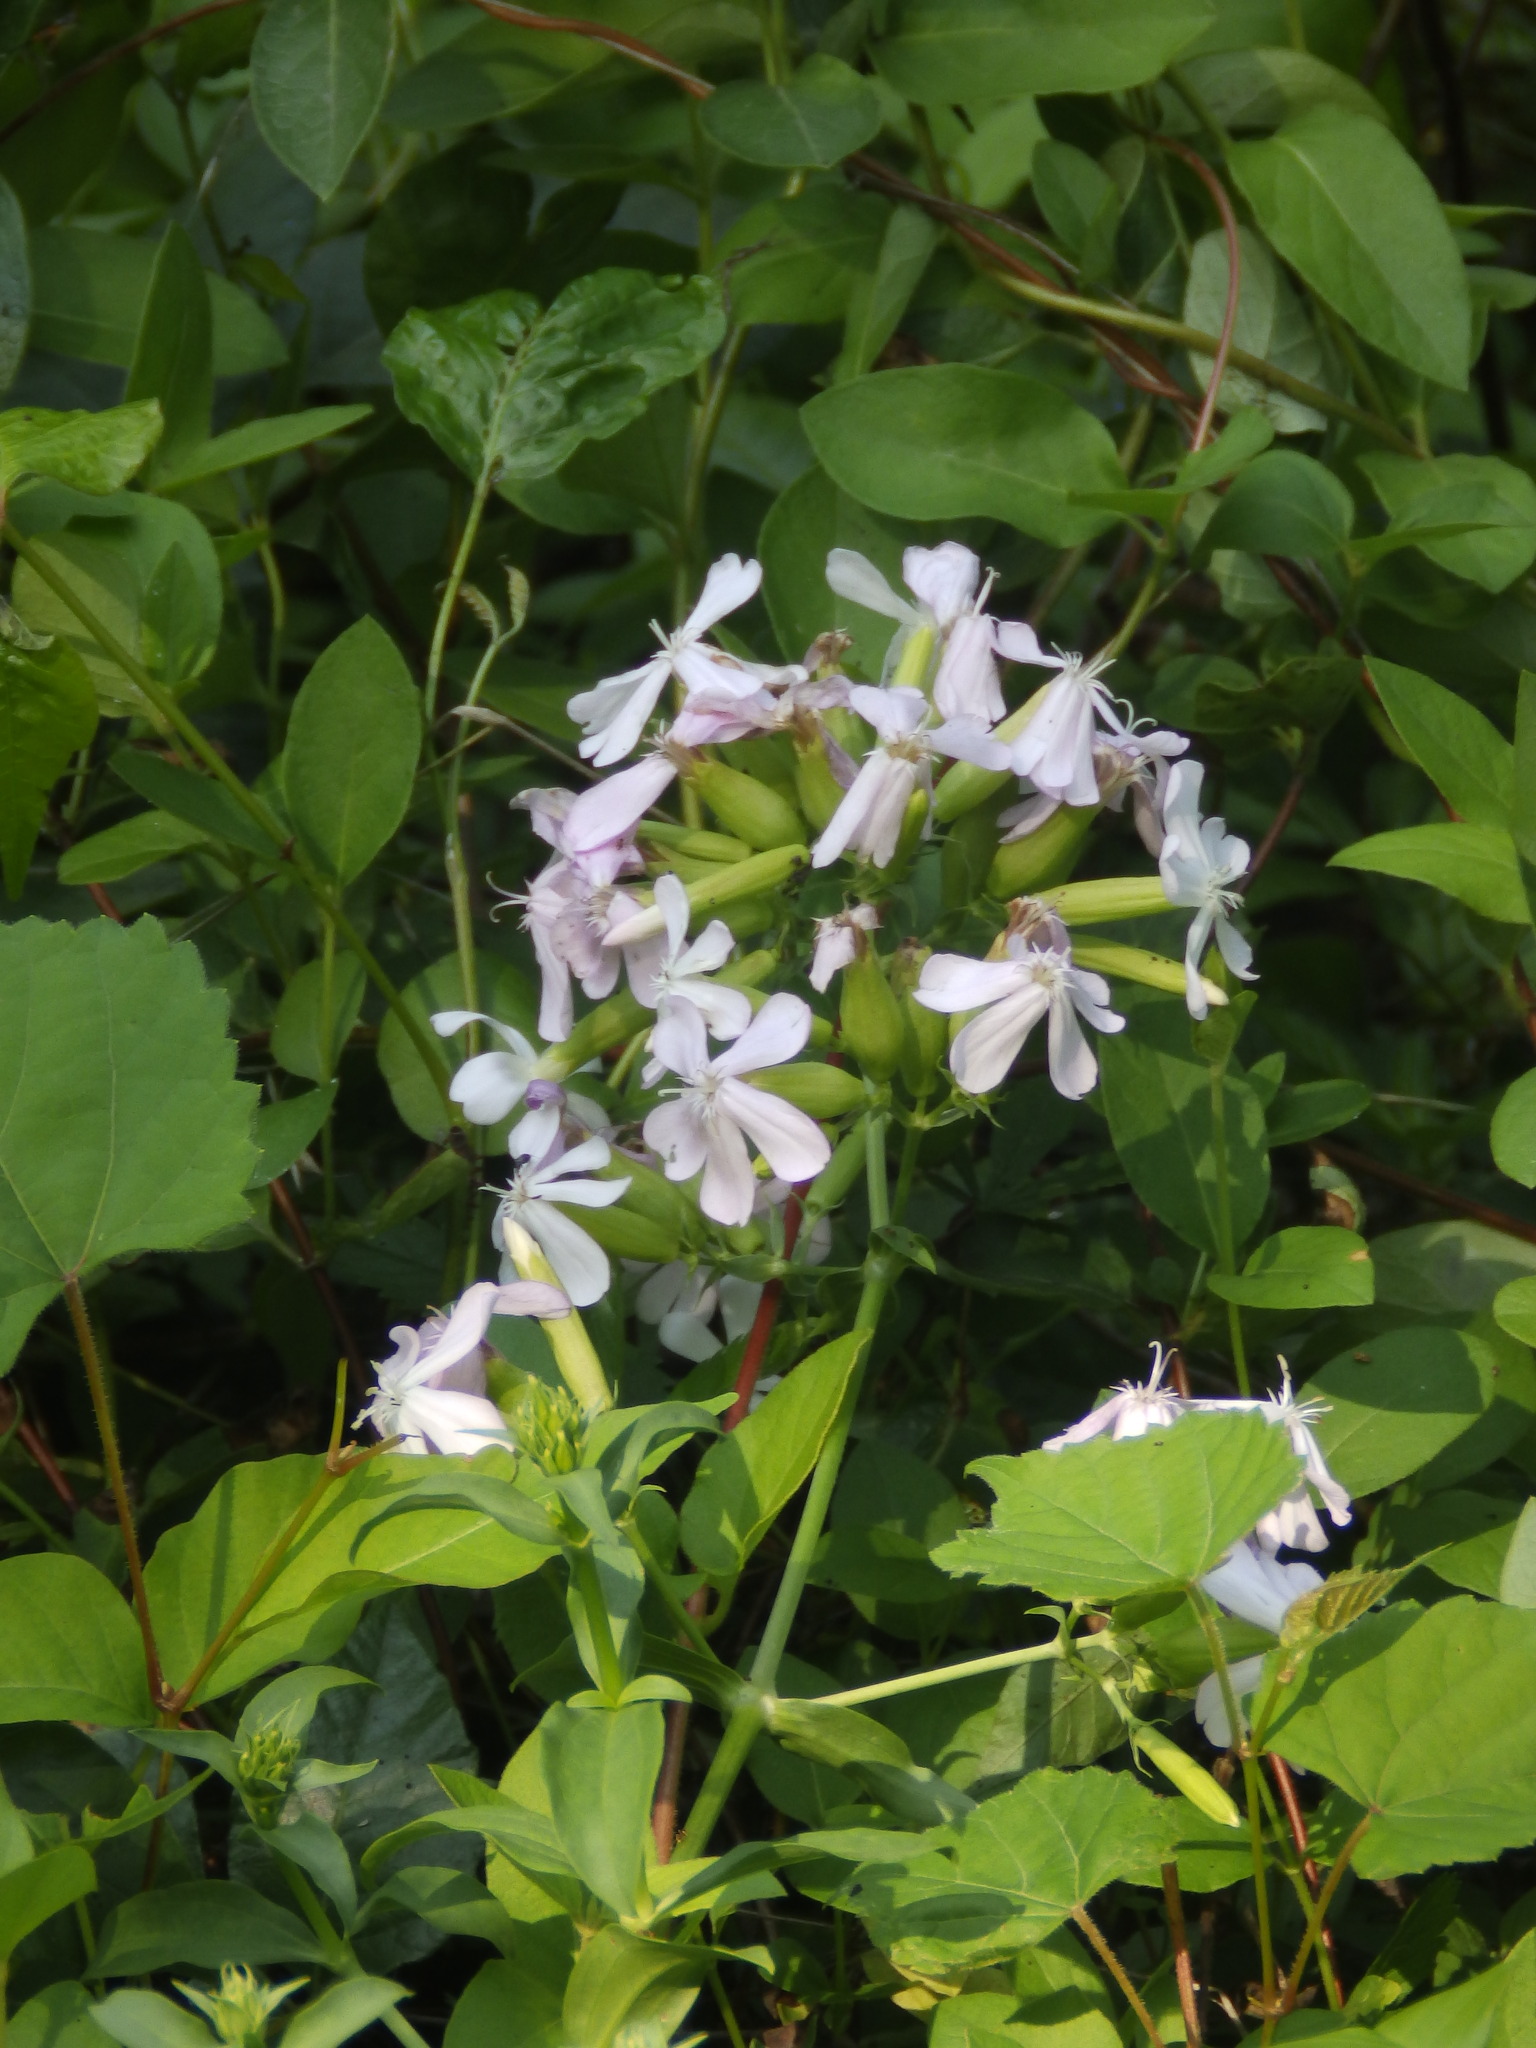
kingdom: Plantae
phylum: Tracheophyta
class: Magnoliopsida
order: Caryophyllales
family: Caryophyllaceae
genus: Saponaria
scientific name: Saponaria officinalis
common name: Soapwort
